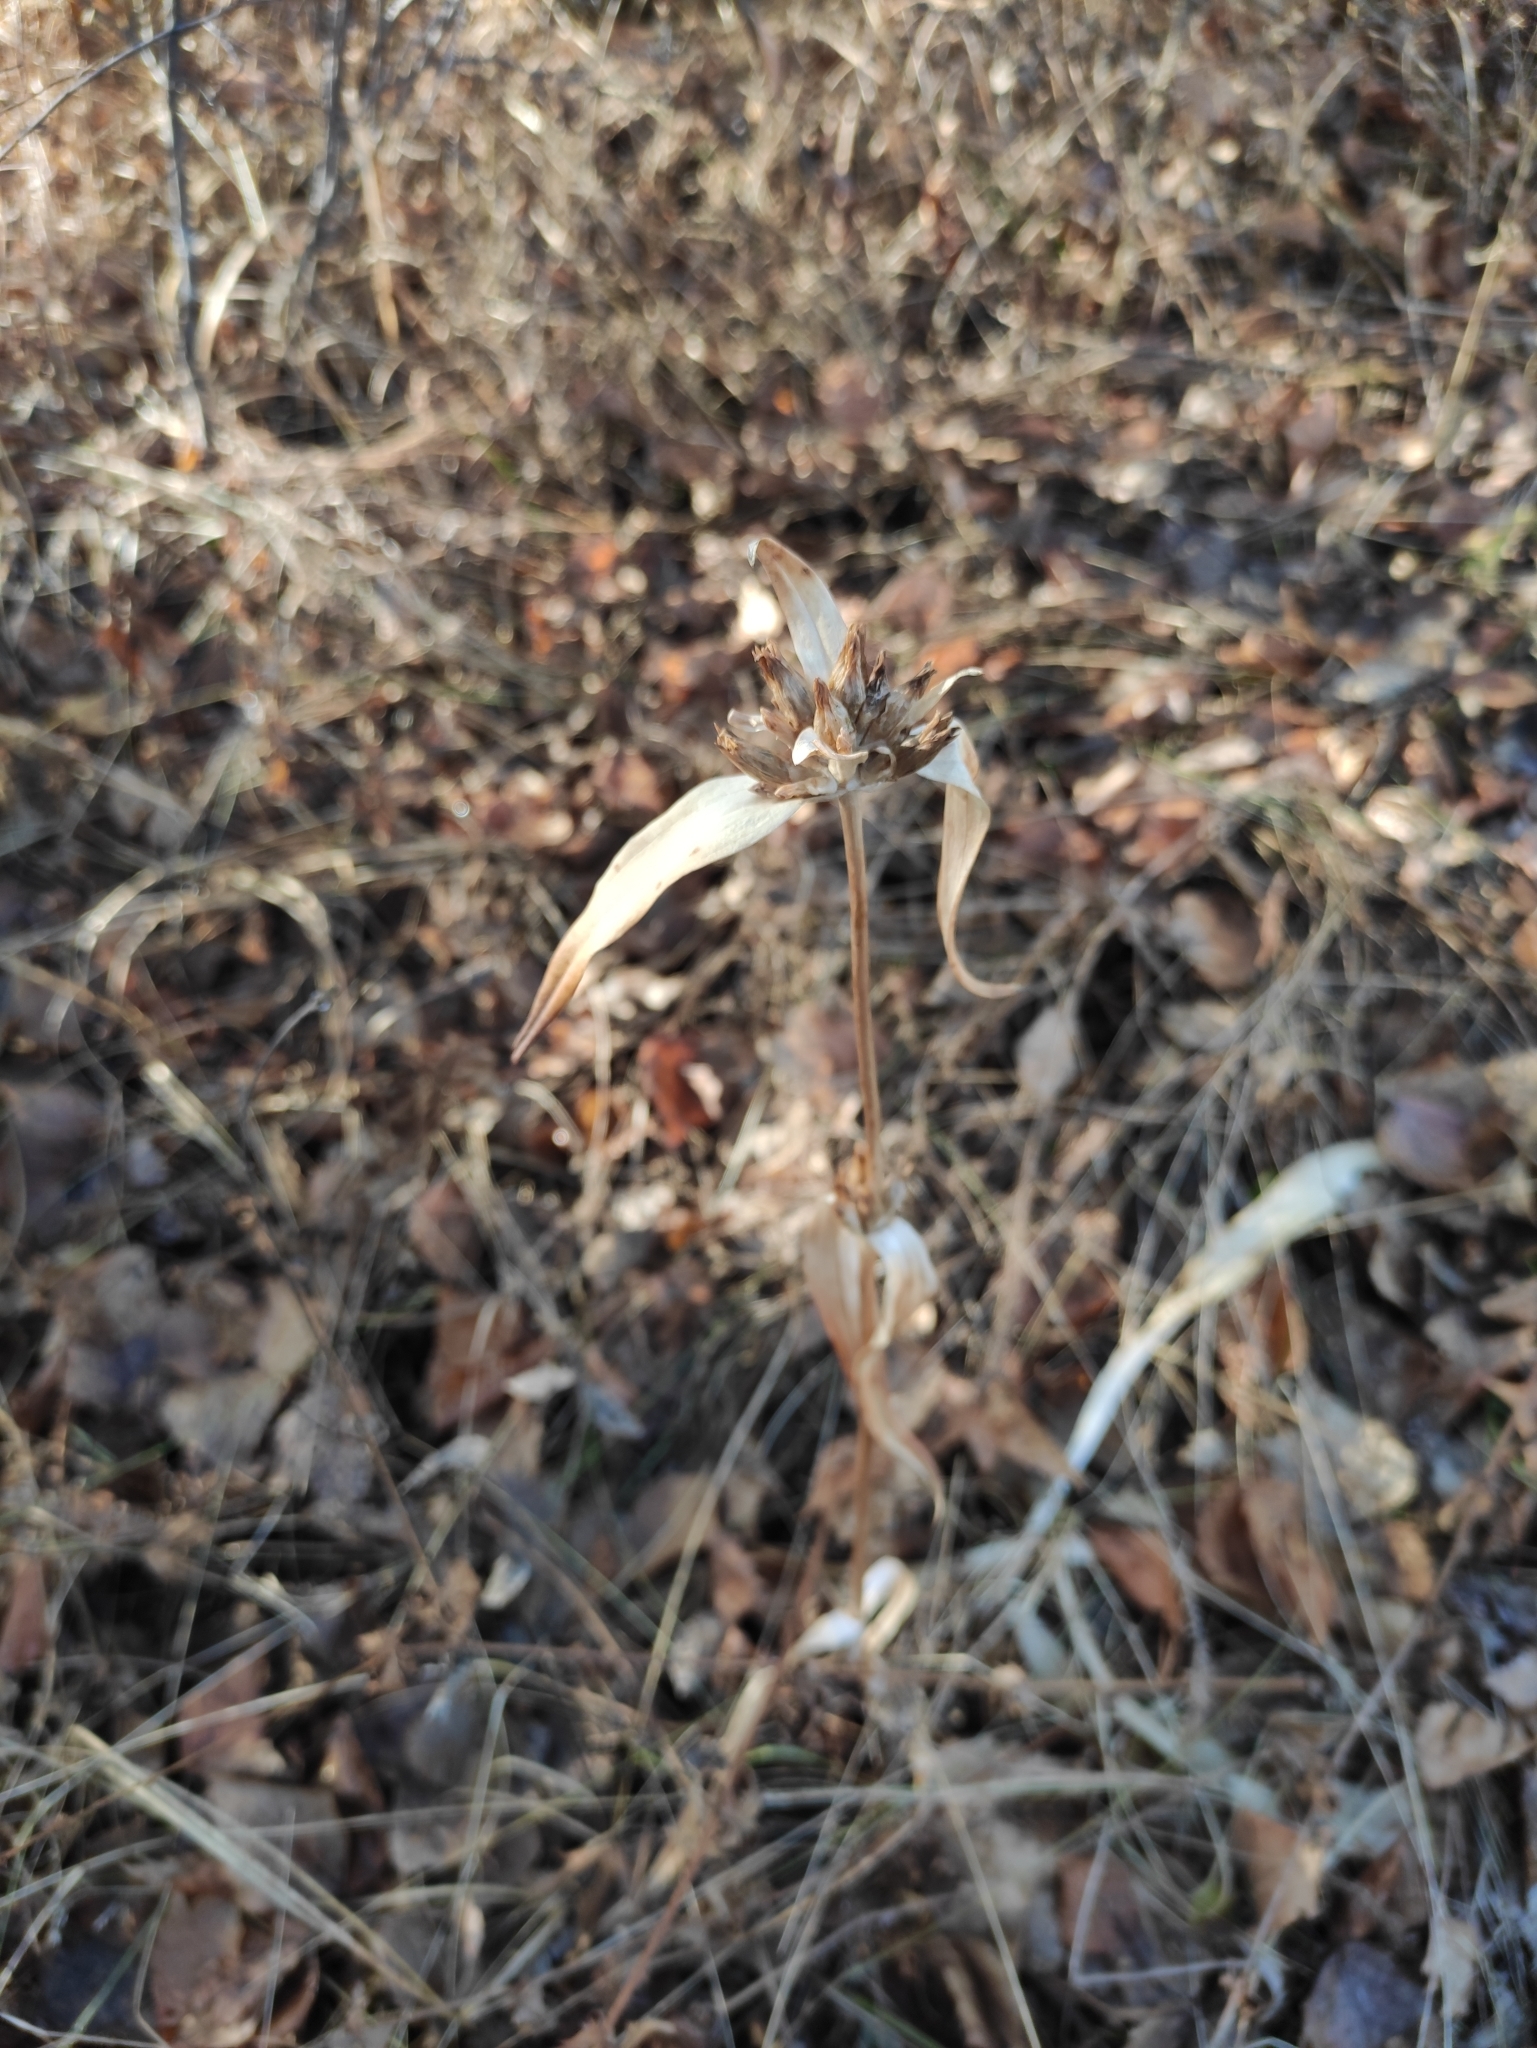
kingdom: Plantae
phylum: Tracheophyta
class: Magnoliopsida
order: Gentianales
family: Gentianaceae
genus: Gentiana
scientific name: Gentiana macrophylla
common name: Large-leaf gentian
